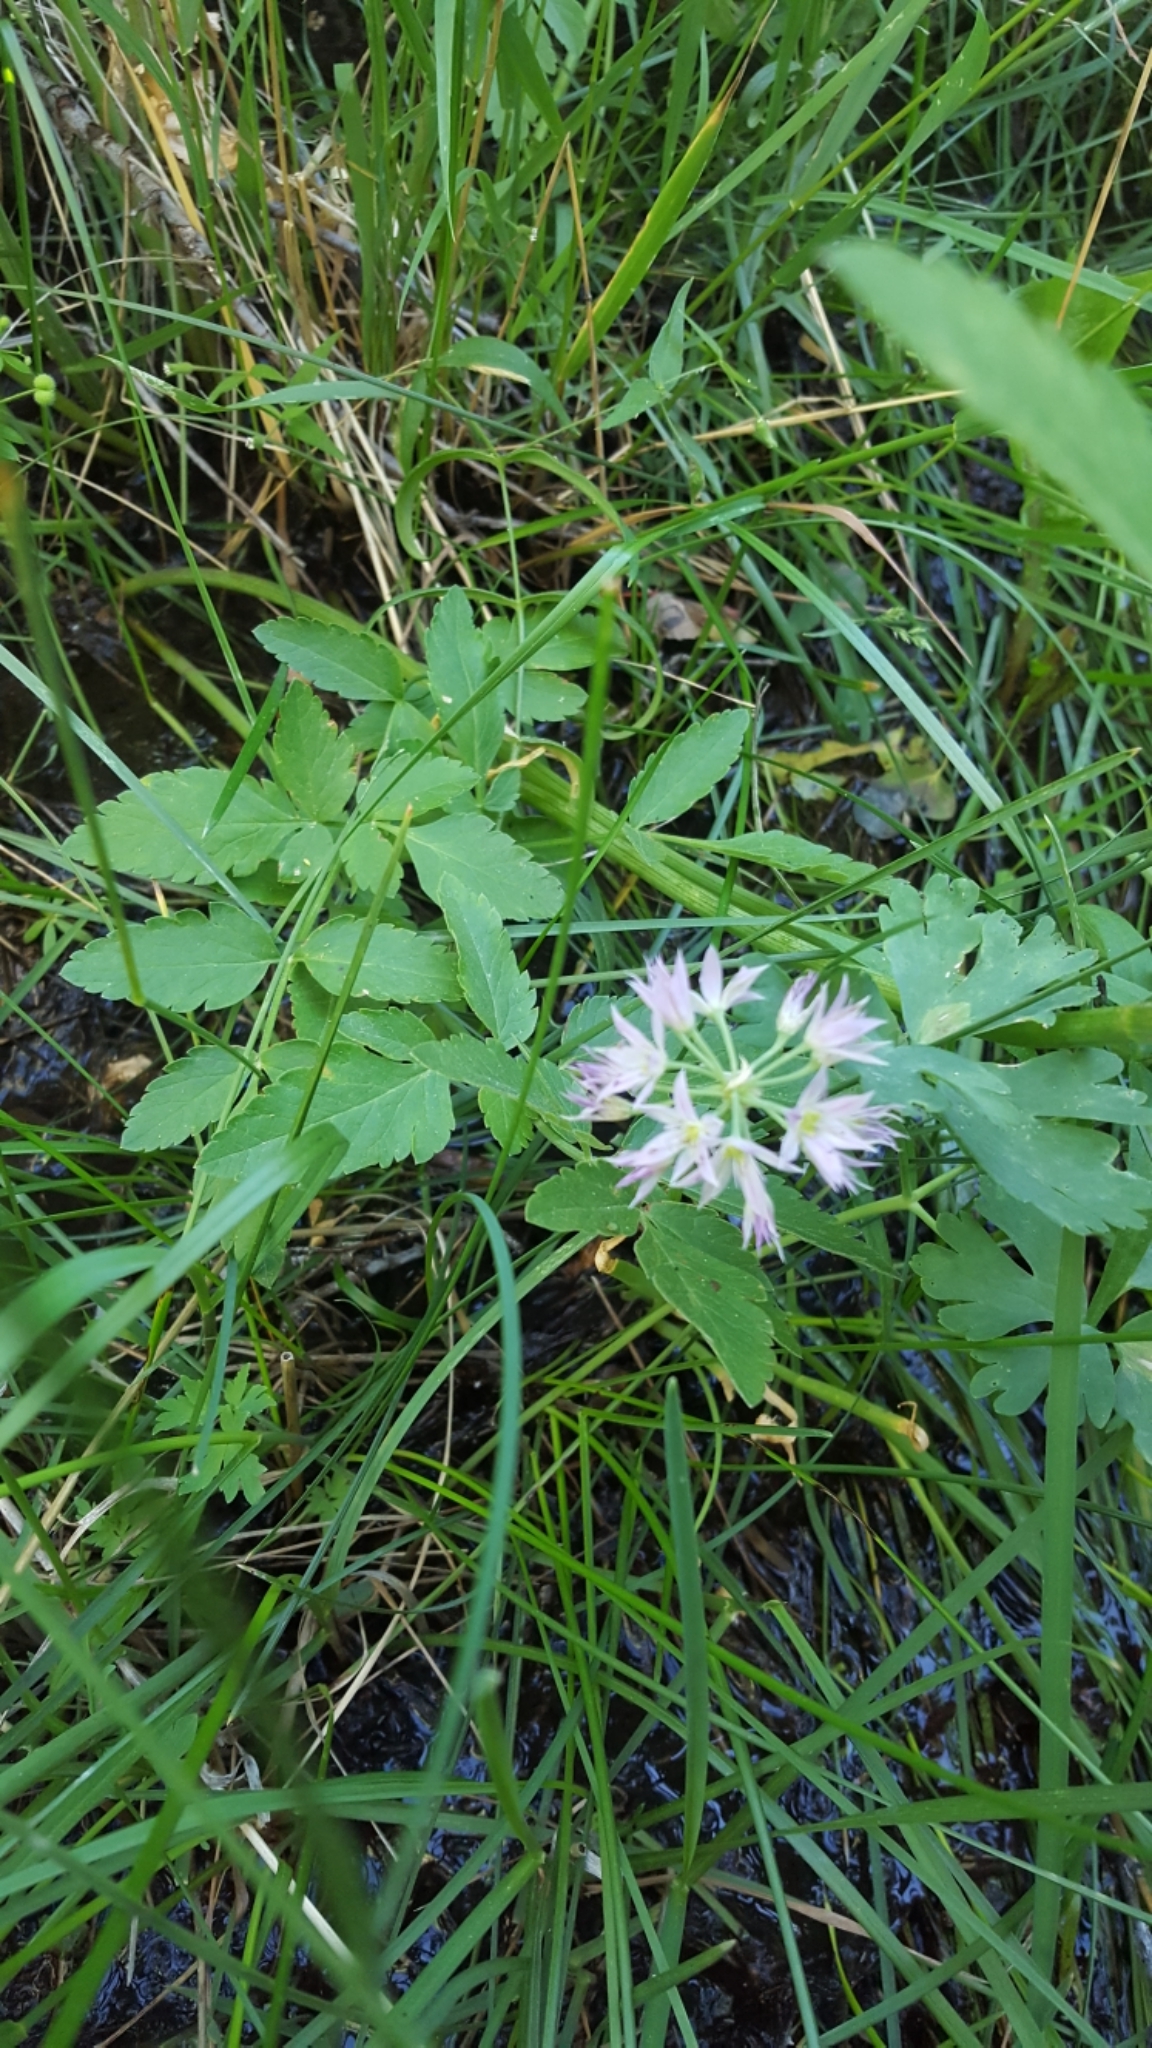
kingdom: Plantae
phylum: Tracheophyta
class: Liliopsida
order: Asparagales
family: Amaryllidaceae
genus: Allium
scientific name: Allium bisceptrum
